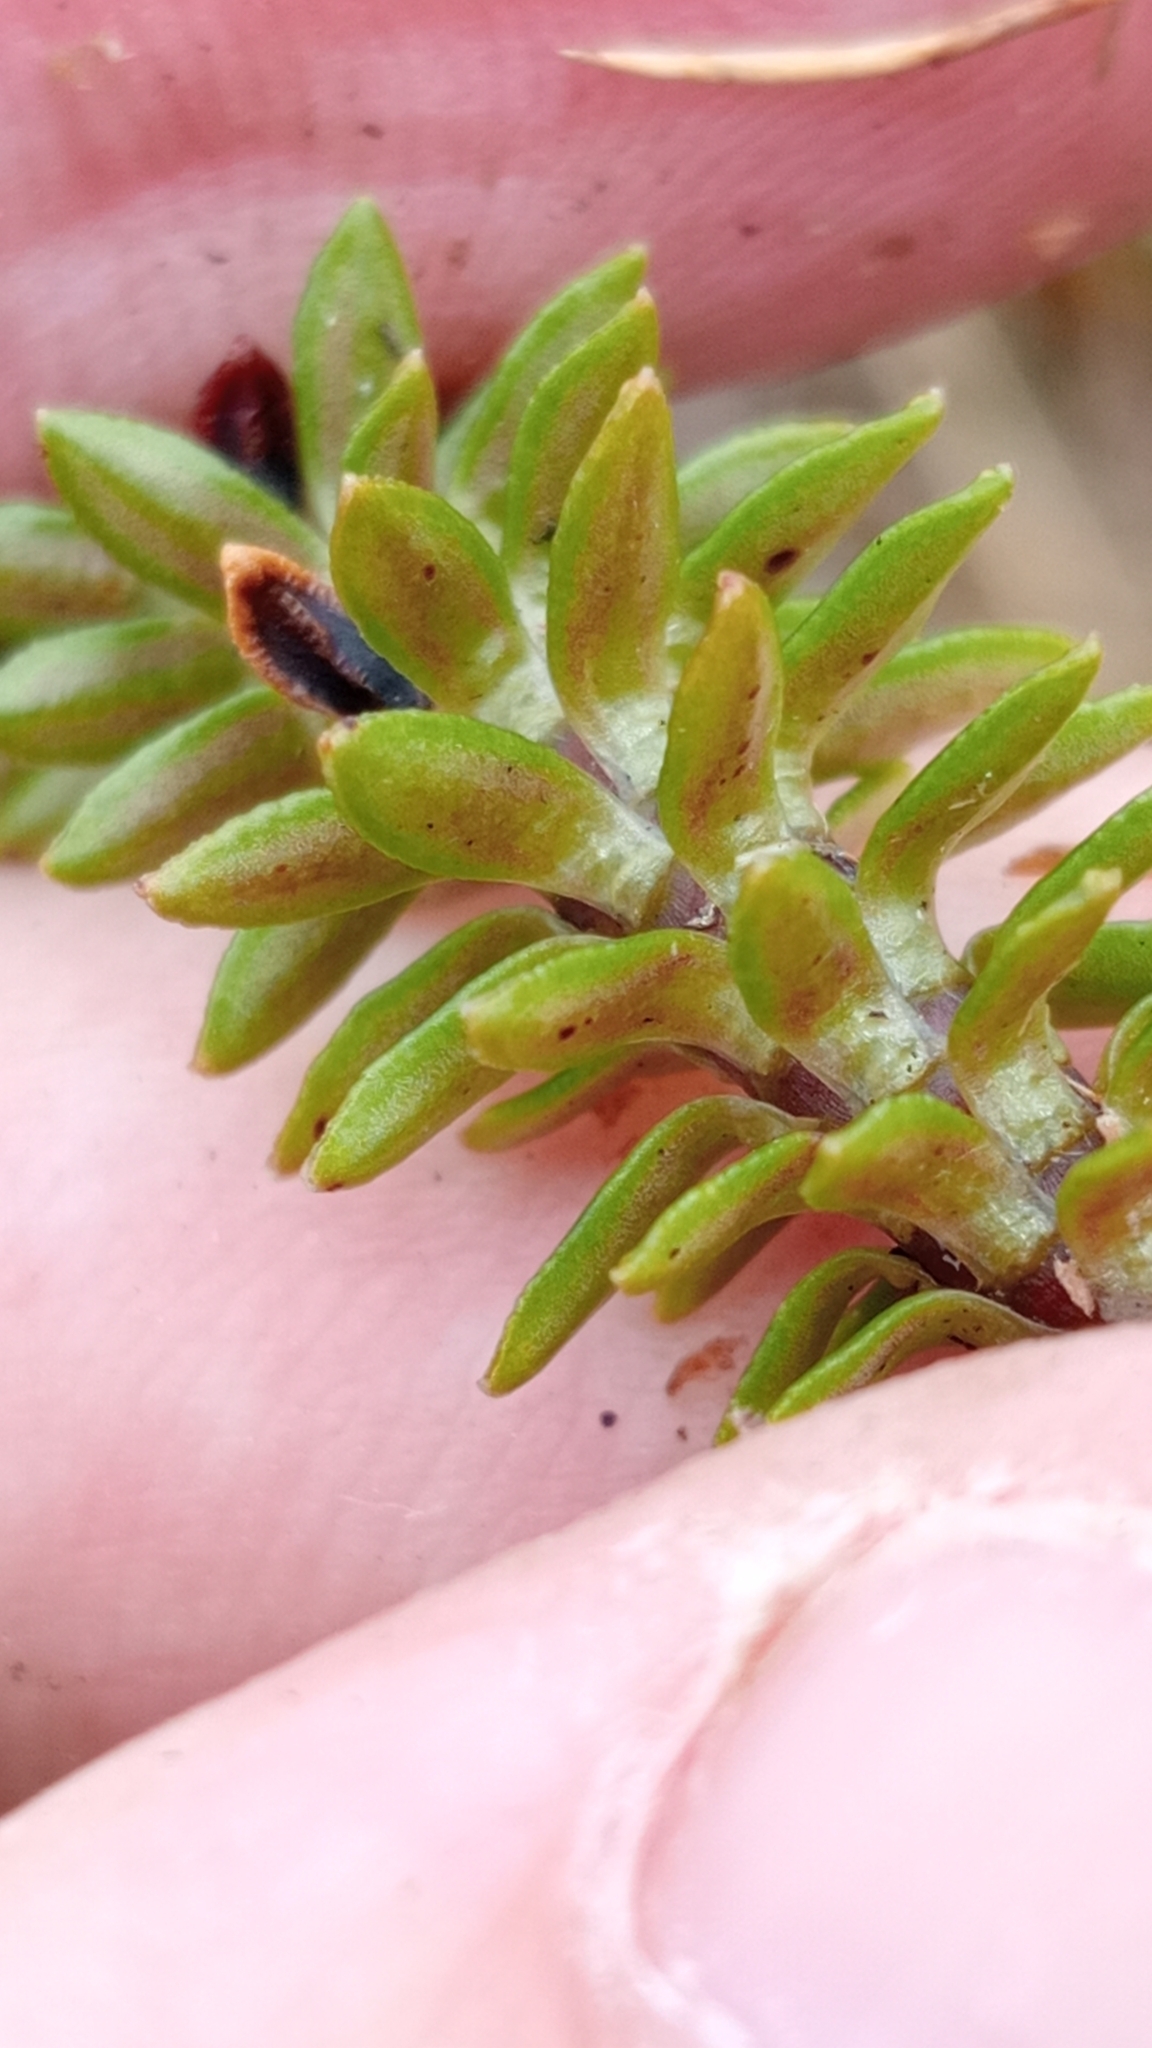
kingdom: Plantae
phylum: Tracheophyta
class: Magnoliopsida
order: Asterales
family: Stylidiaceae
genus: Forstera
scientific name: Forstera mackayi
